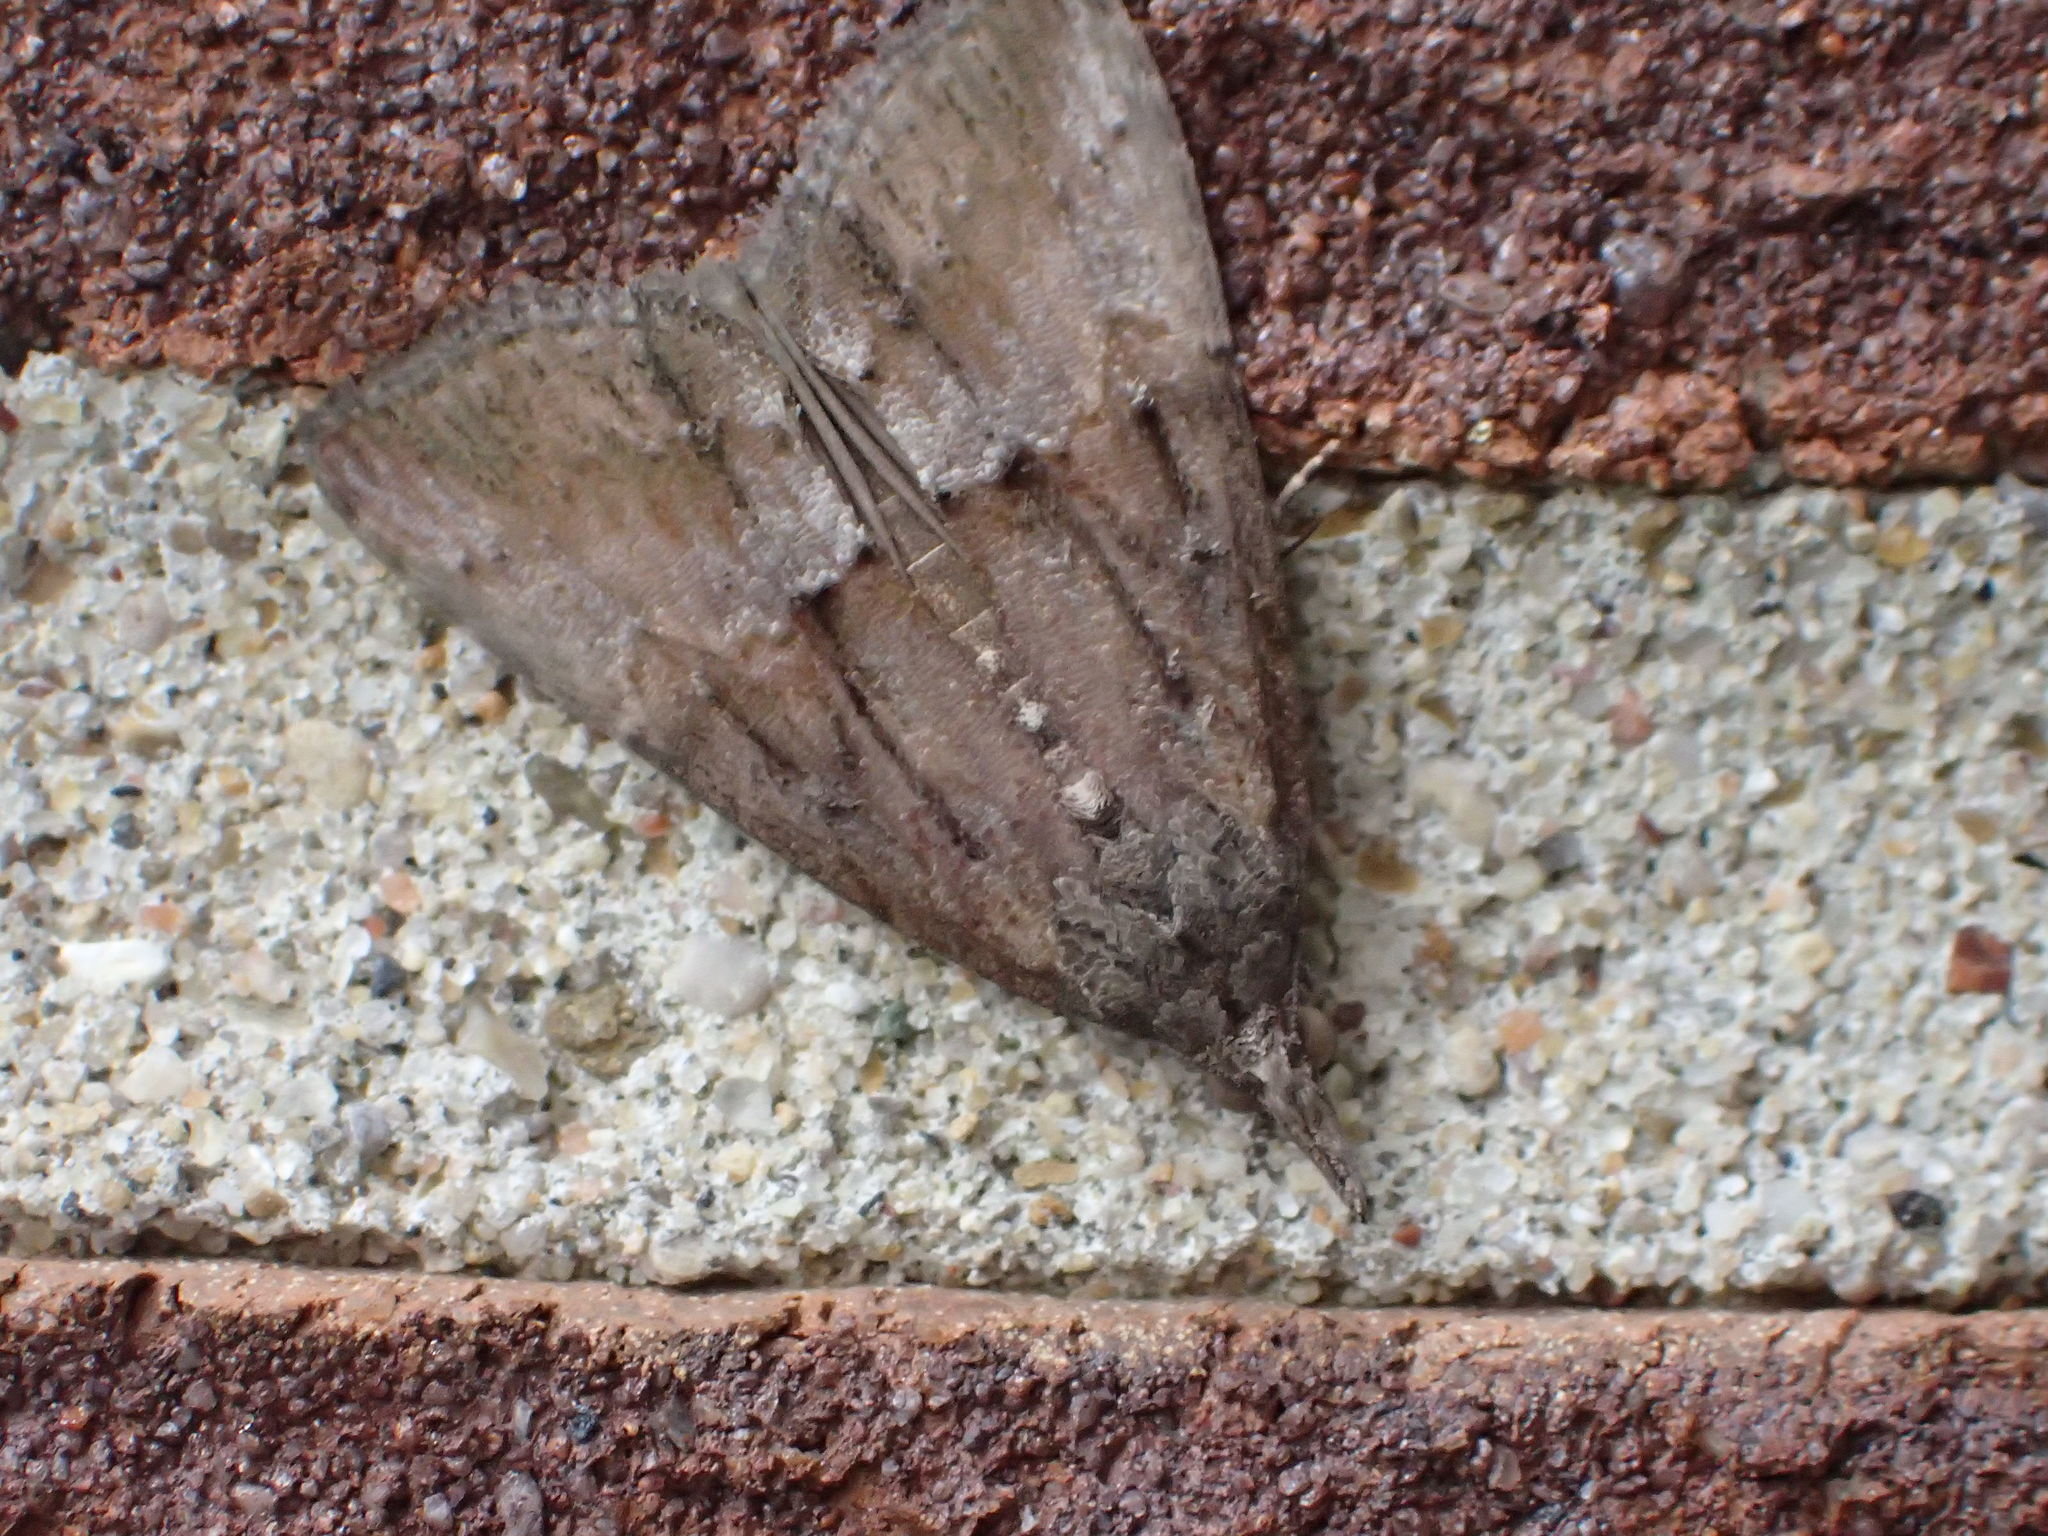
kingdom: Animalia
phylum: Arthropoda
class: Insecta
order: Lepidoptera
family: Erebidae
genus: Hypena
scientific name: Hypena scabra
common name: Green cloverworm
